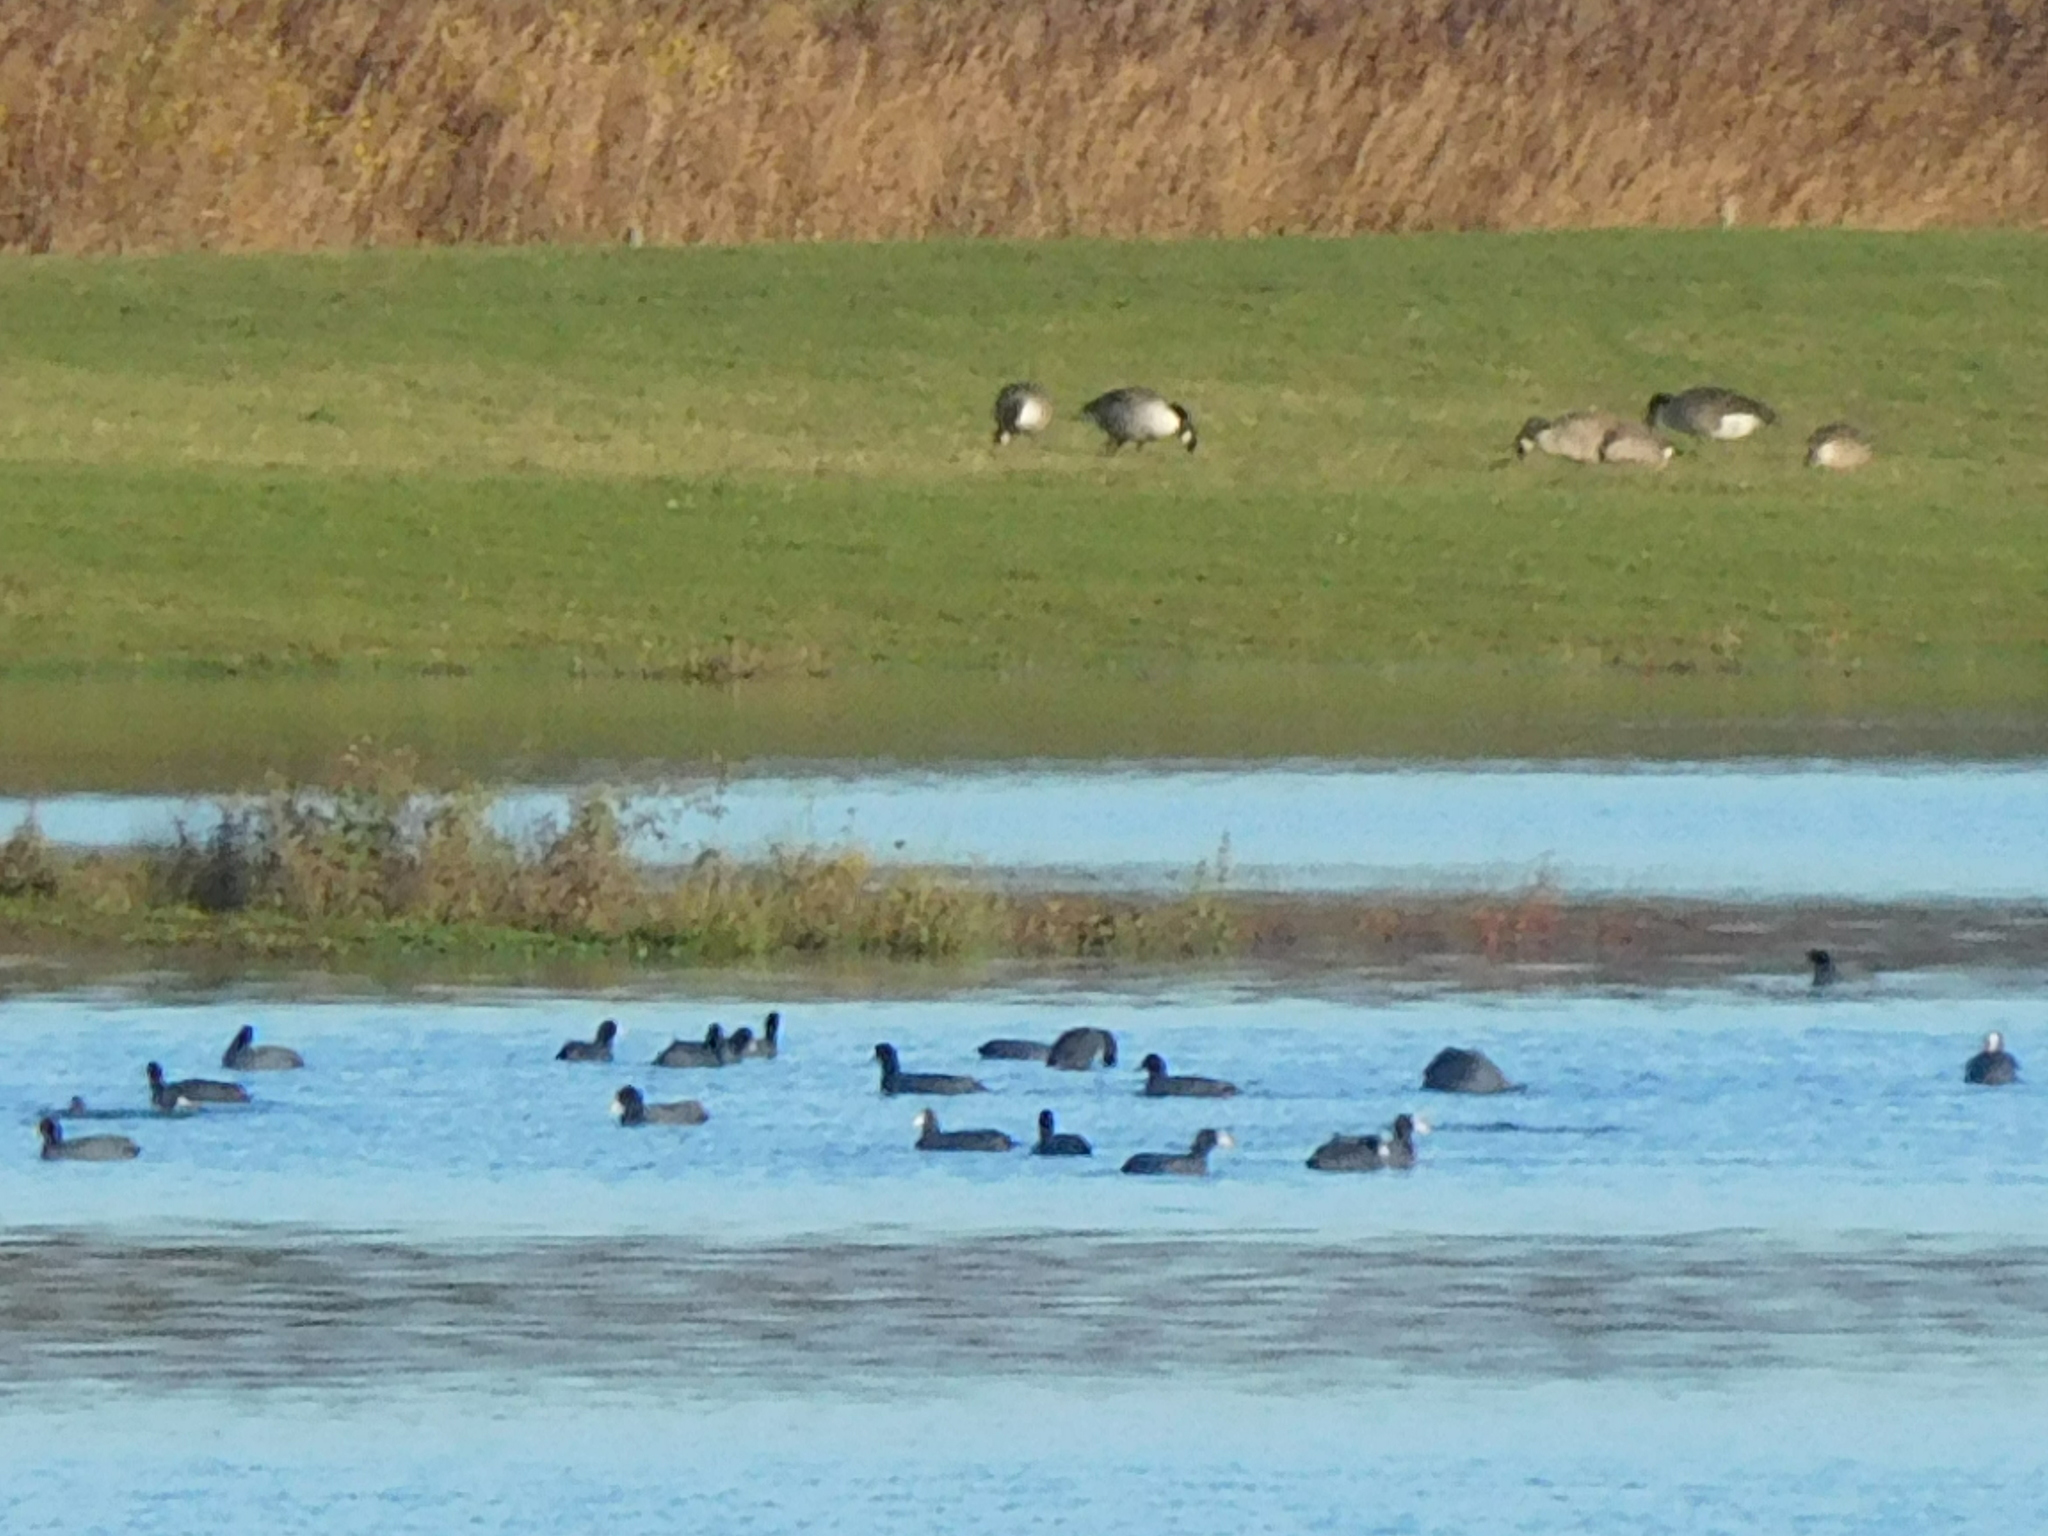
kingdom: Animalia
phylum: Chordata
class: Aves
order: Gruiformes
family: Rallidae
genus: Fulica
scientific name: Fulica atra
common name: Eurasian coot
